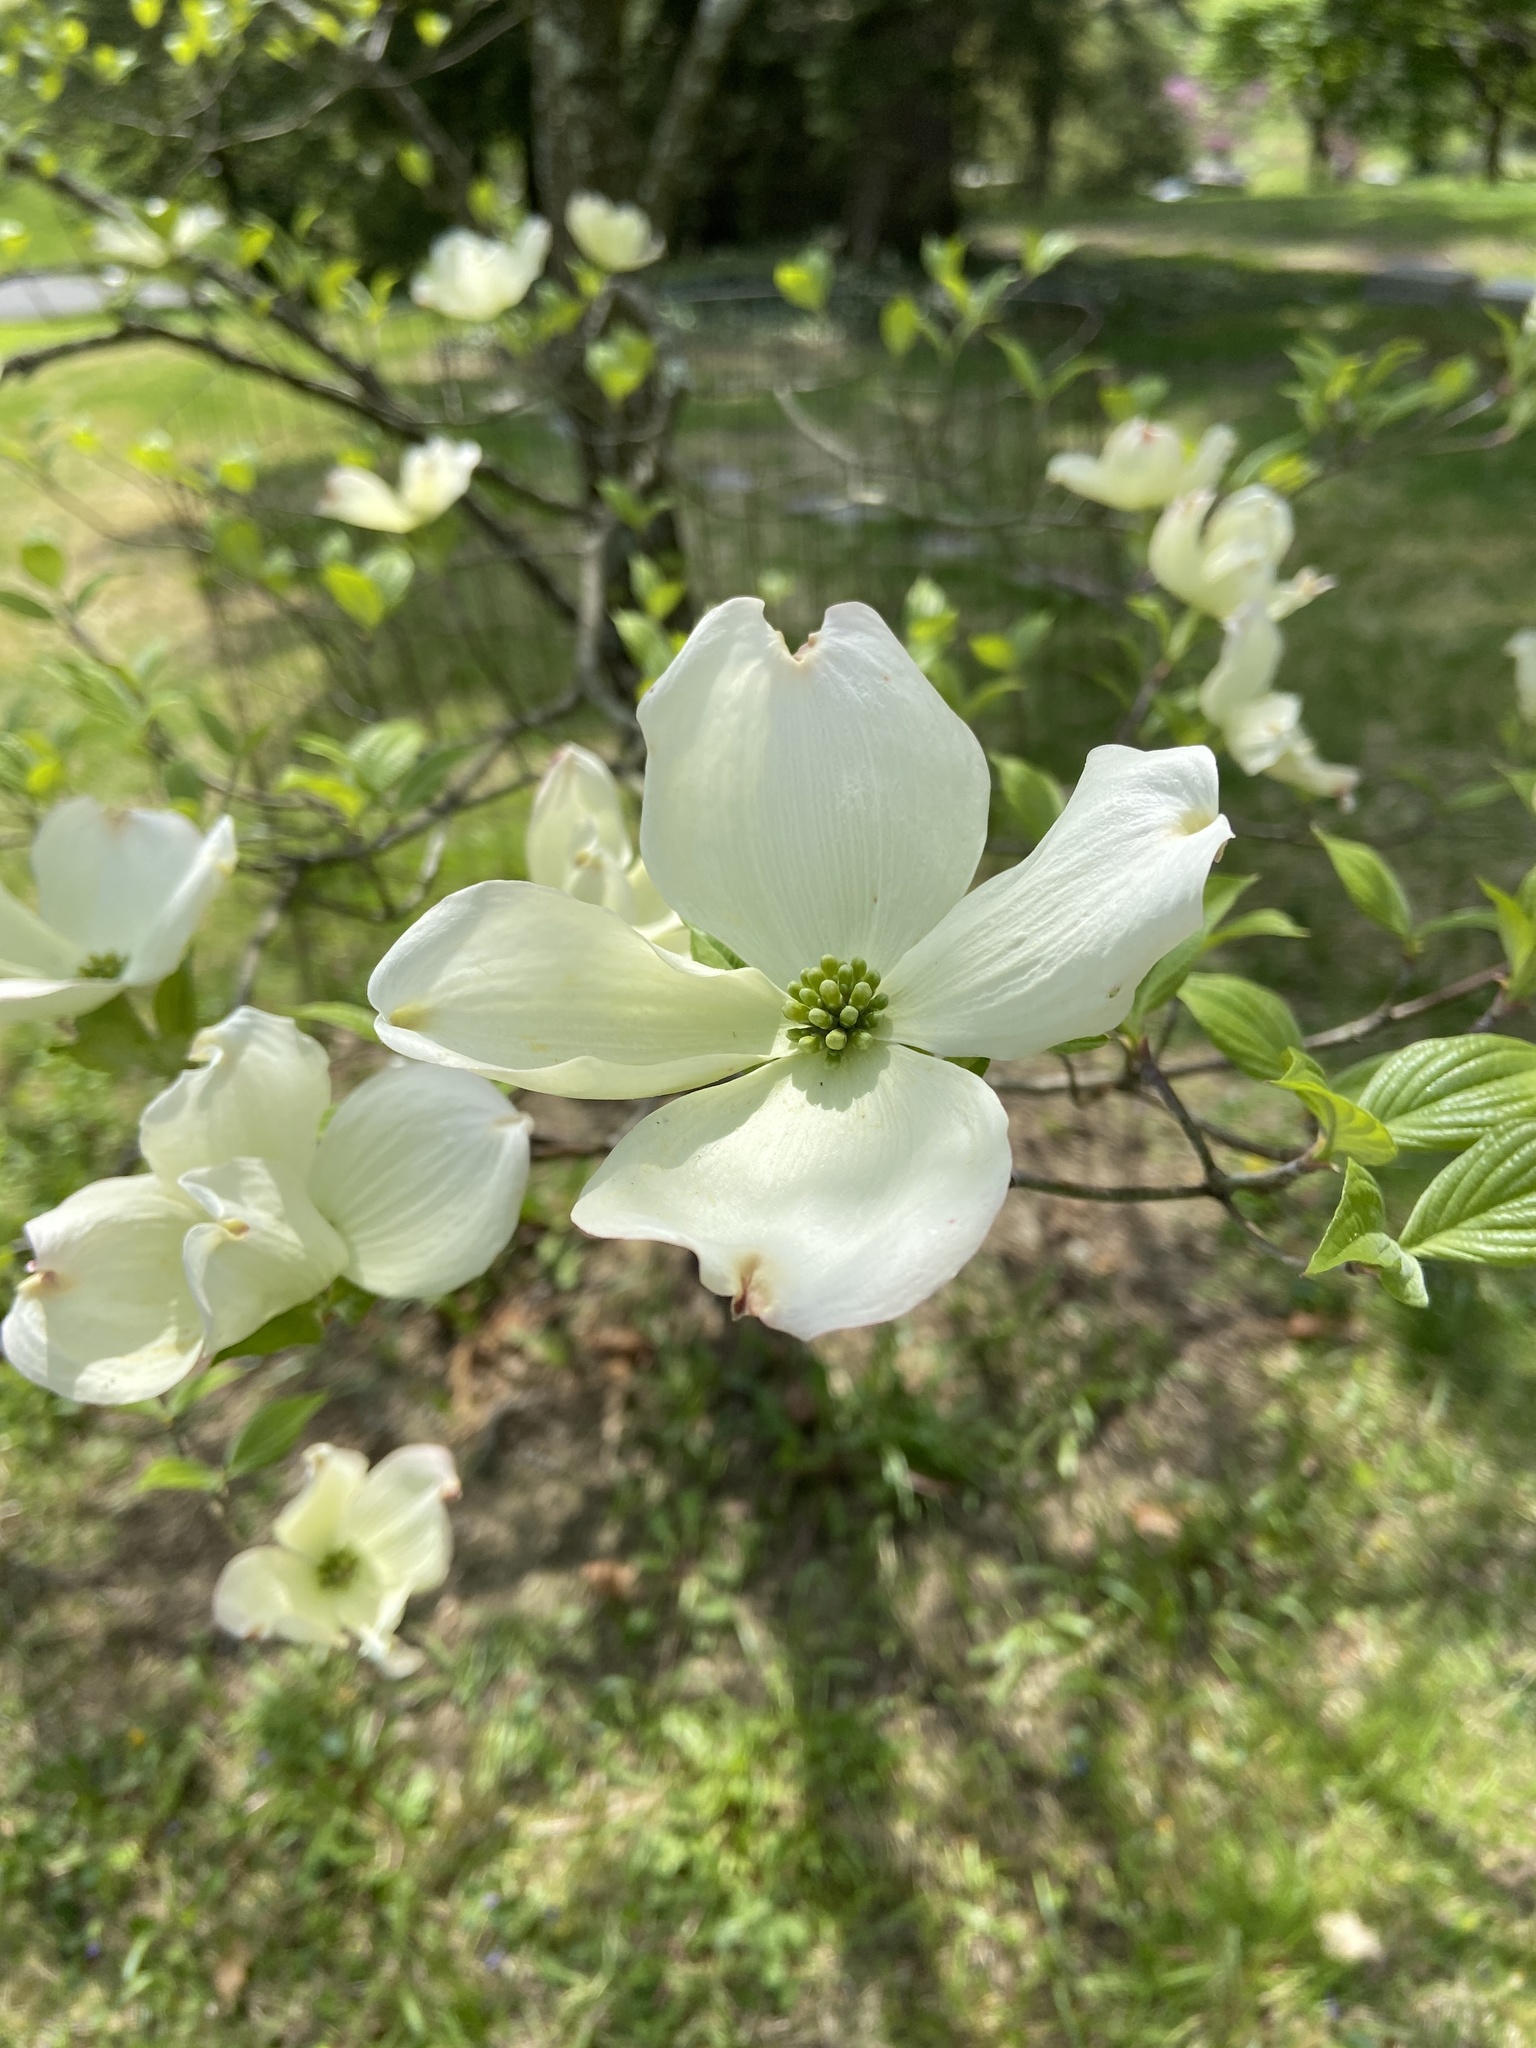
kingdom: Plantae
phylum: Tracheophyta
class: Magnoliopsida
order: Cornales
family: Cornaceae
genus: Cornus
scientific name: Cornus florida
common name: Flowering dogwood
